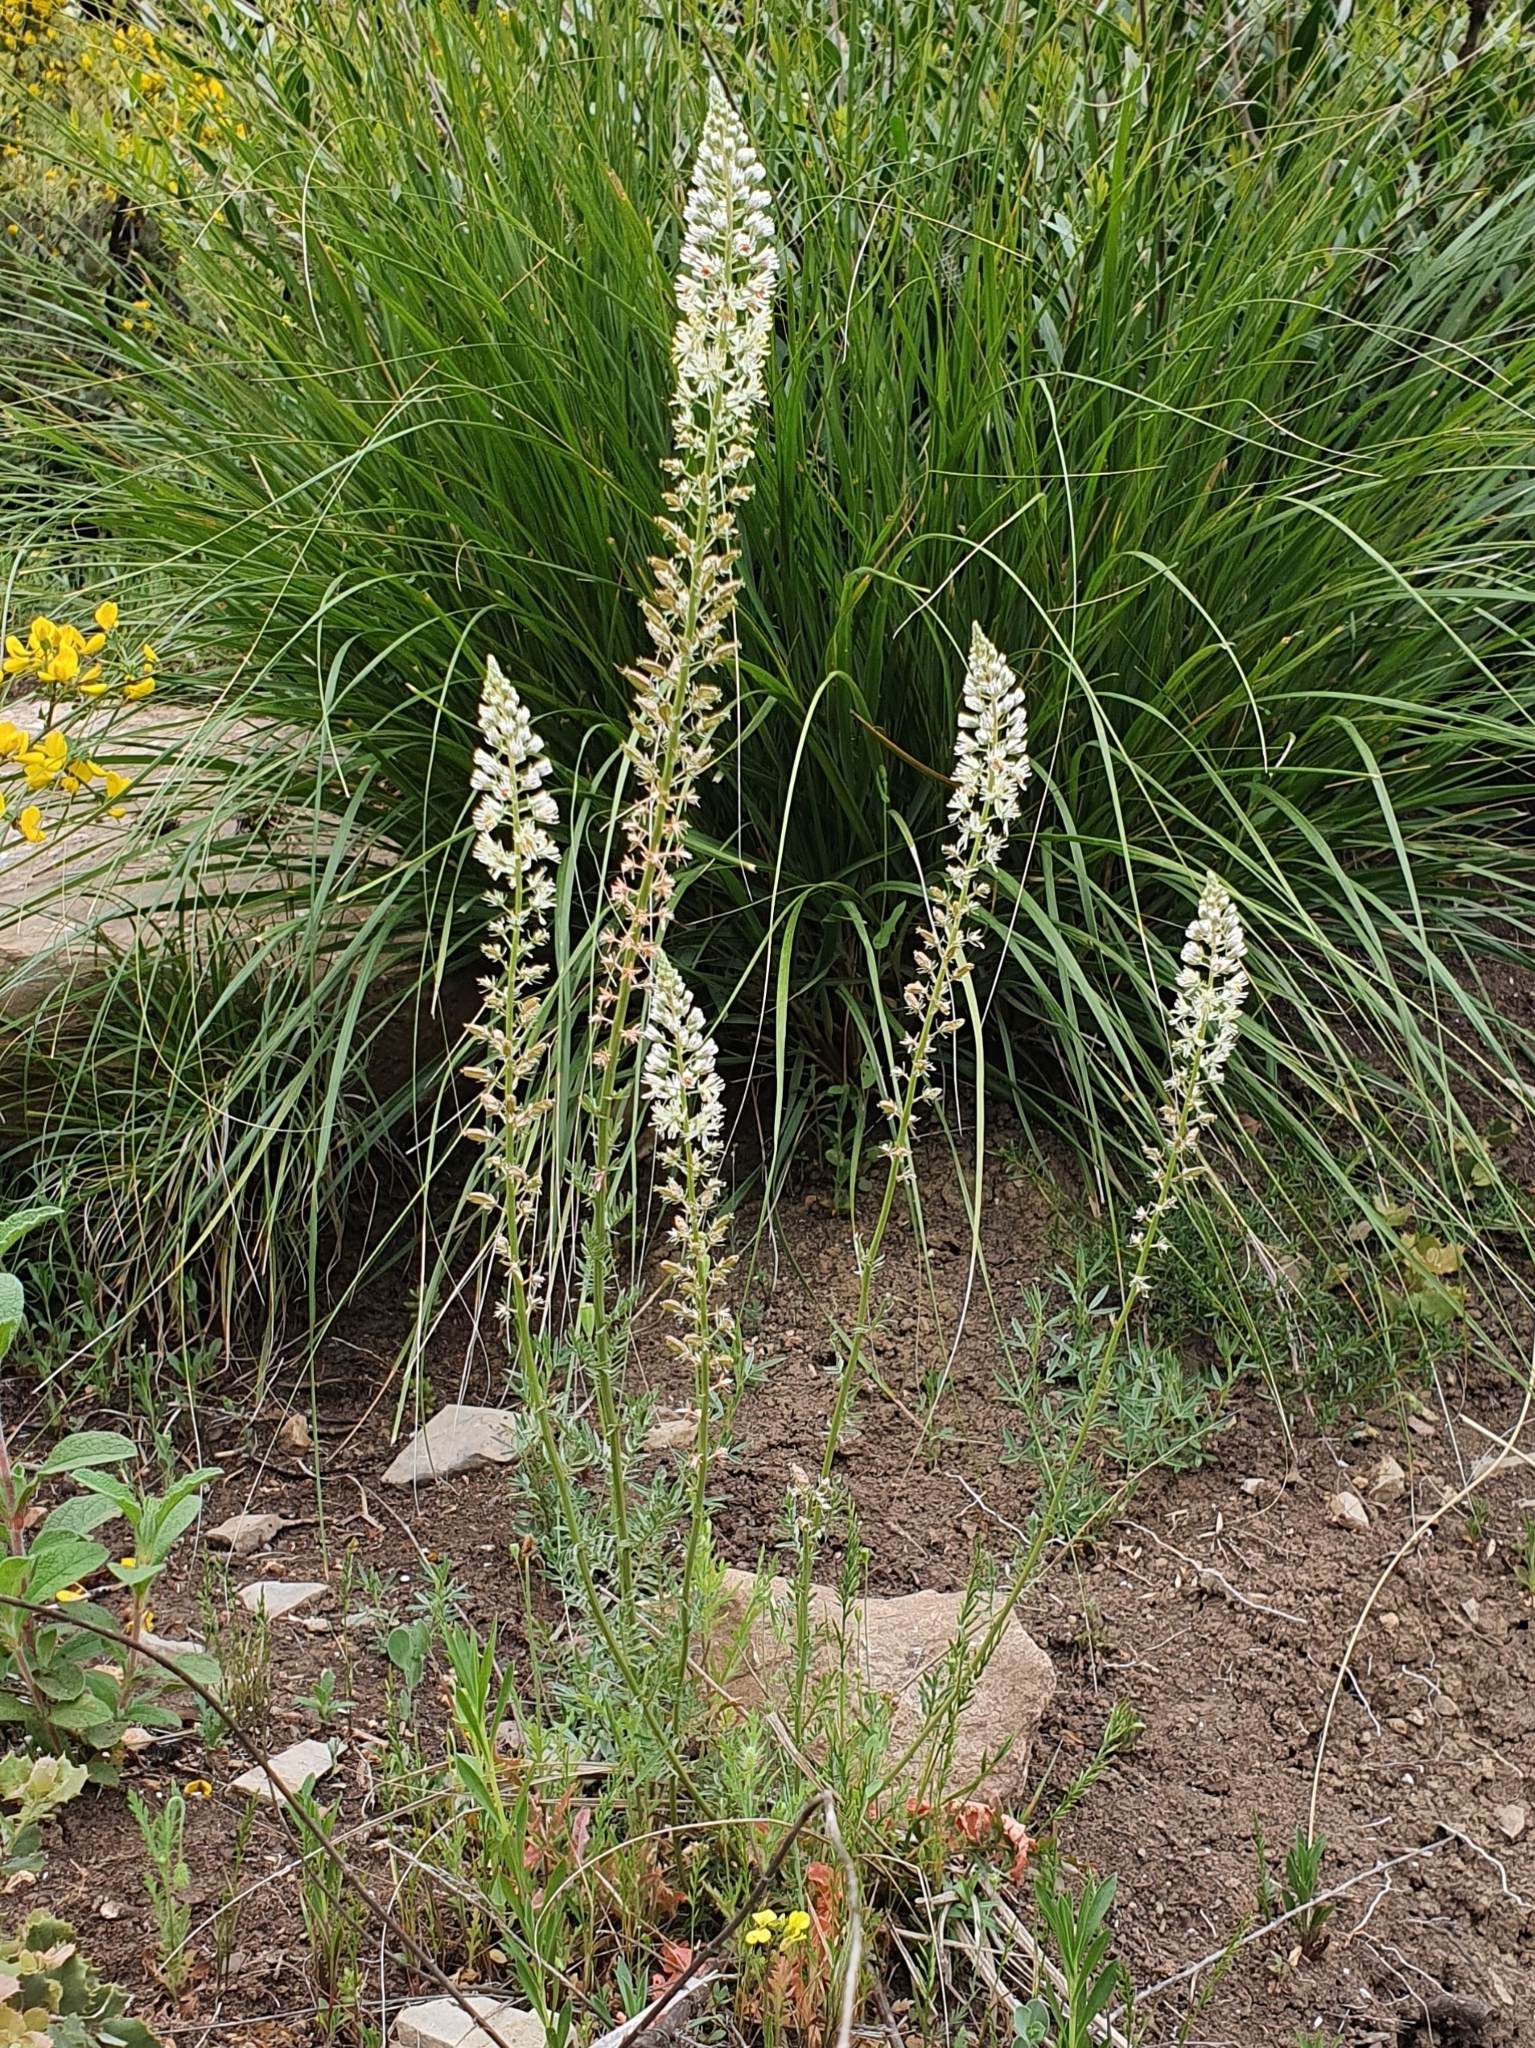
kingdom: Plantae
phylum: Tracheophyta
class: Magnoliopsida
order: Brassicales
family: Resedaceae
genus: Reseda
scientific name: Reseda alba
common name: White mignonette
